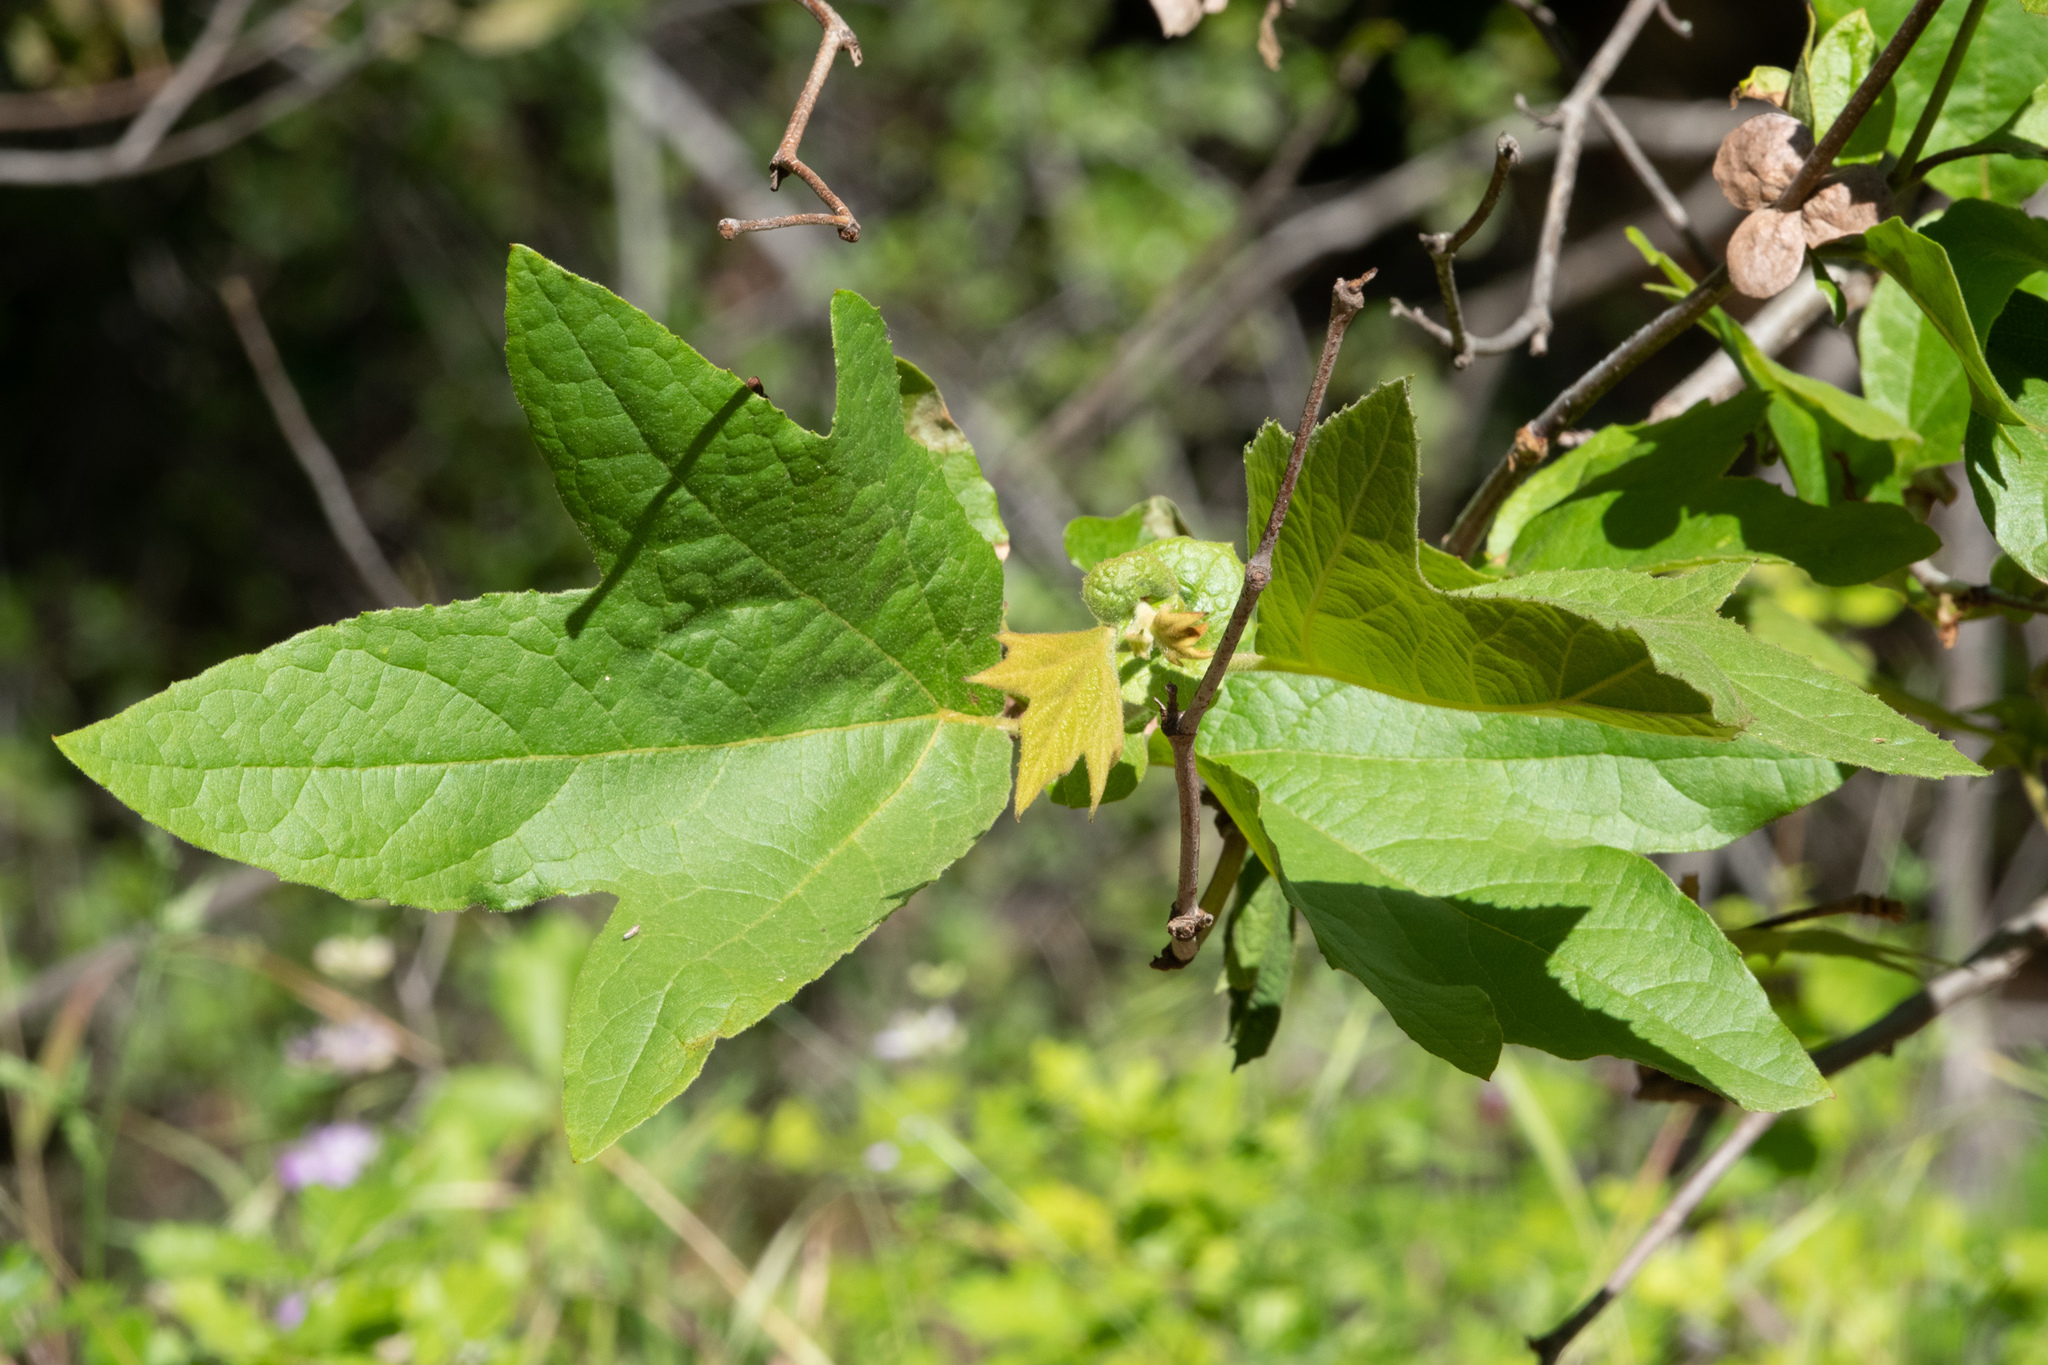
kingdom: Plantae
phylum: Tracheophyta
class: Magnoliopsida
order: Proteales
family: Platanaceae
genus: Platanus
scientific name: Platanus racemosa
